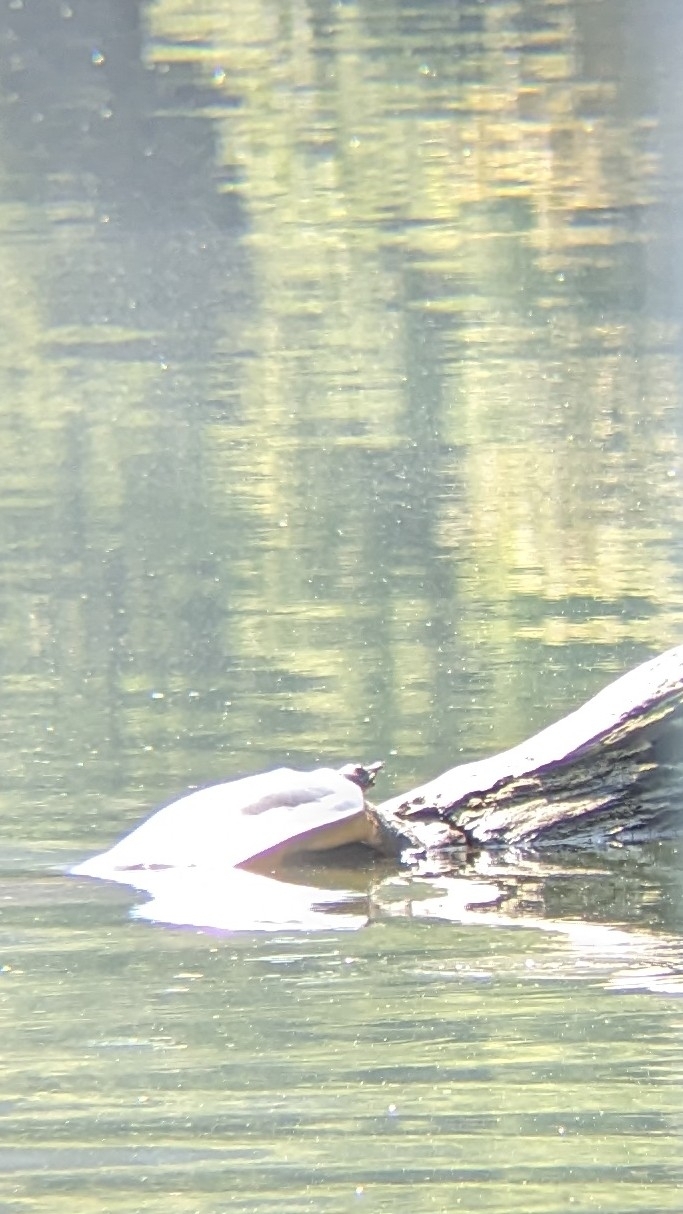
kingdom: Animalia
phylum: Chordata
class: Testudines
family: Trionychidae
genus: Apalone
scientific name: Apalone spinifera
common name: Spiny softshell turtle
